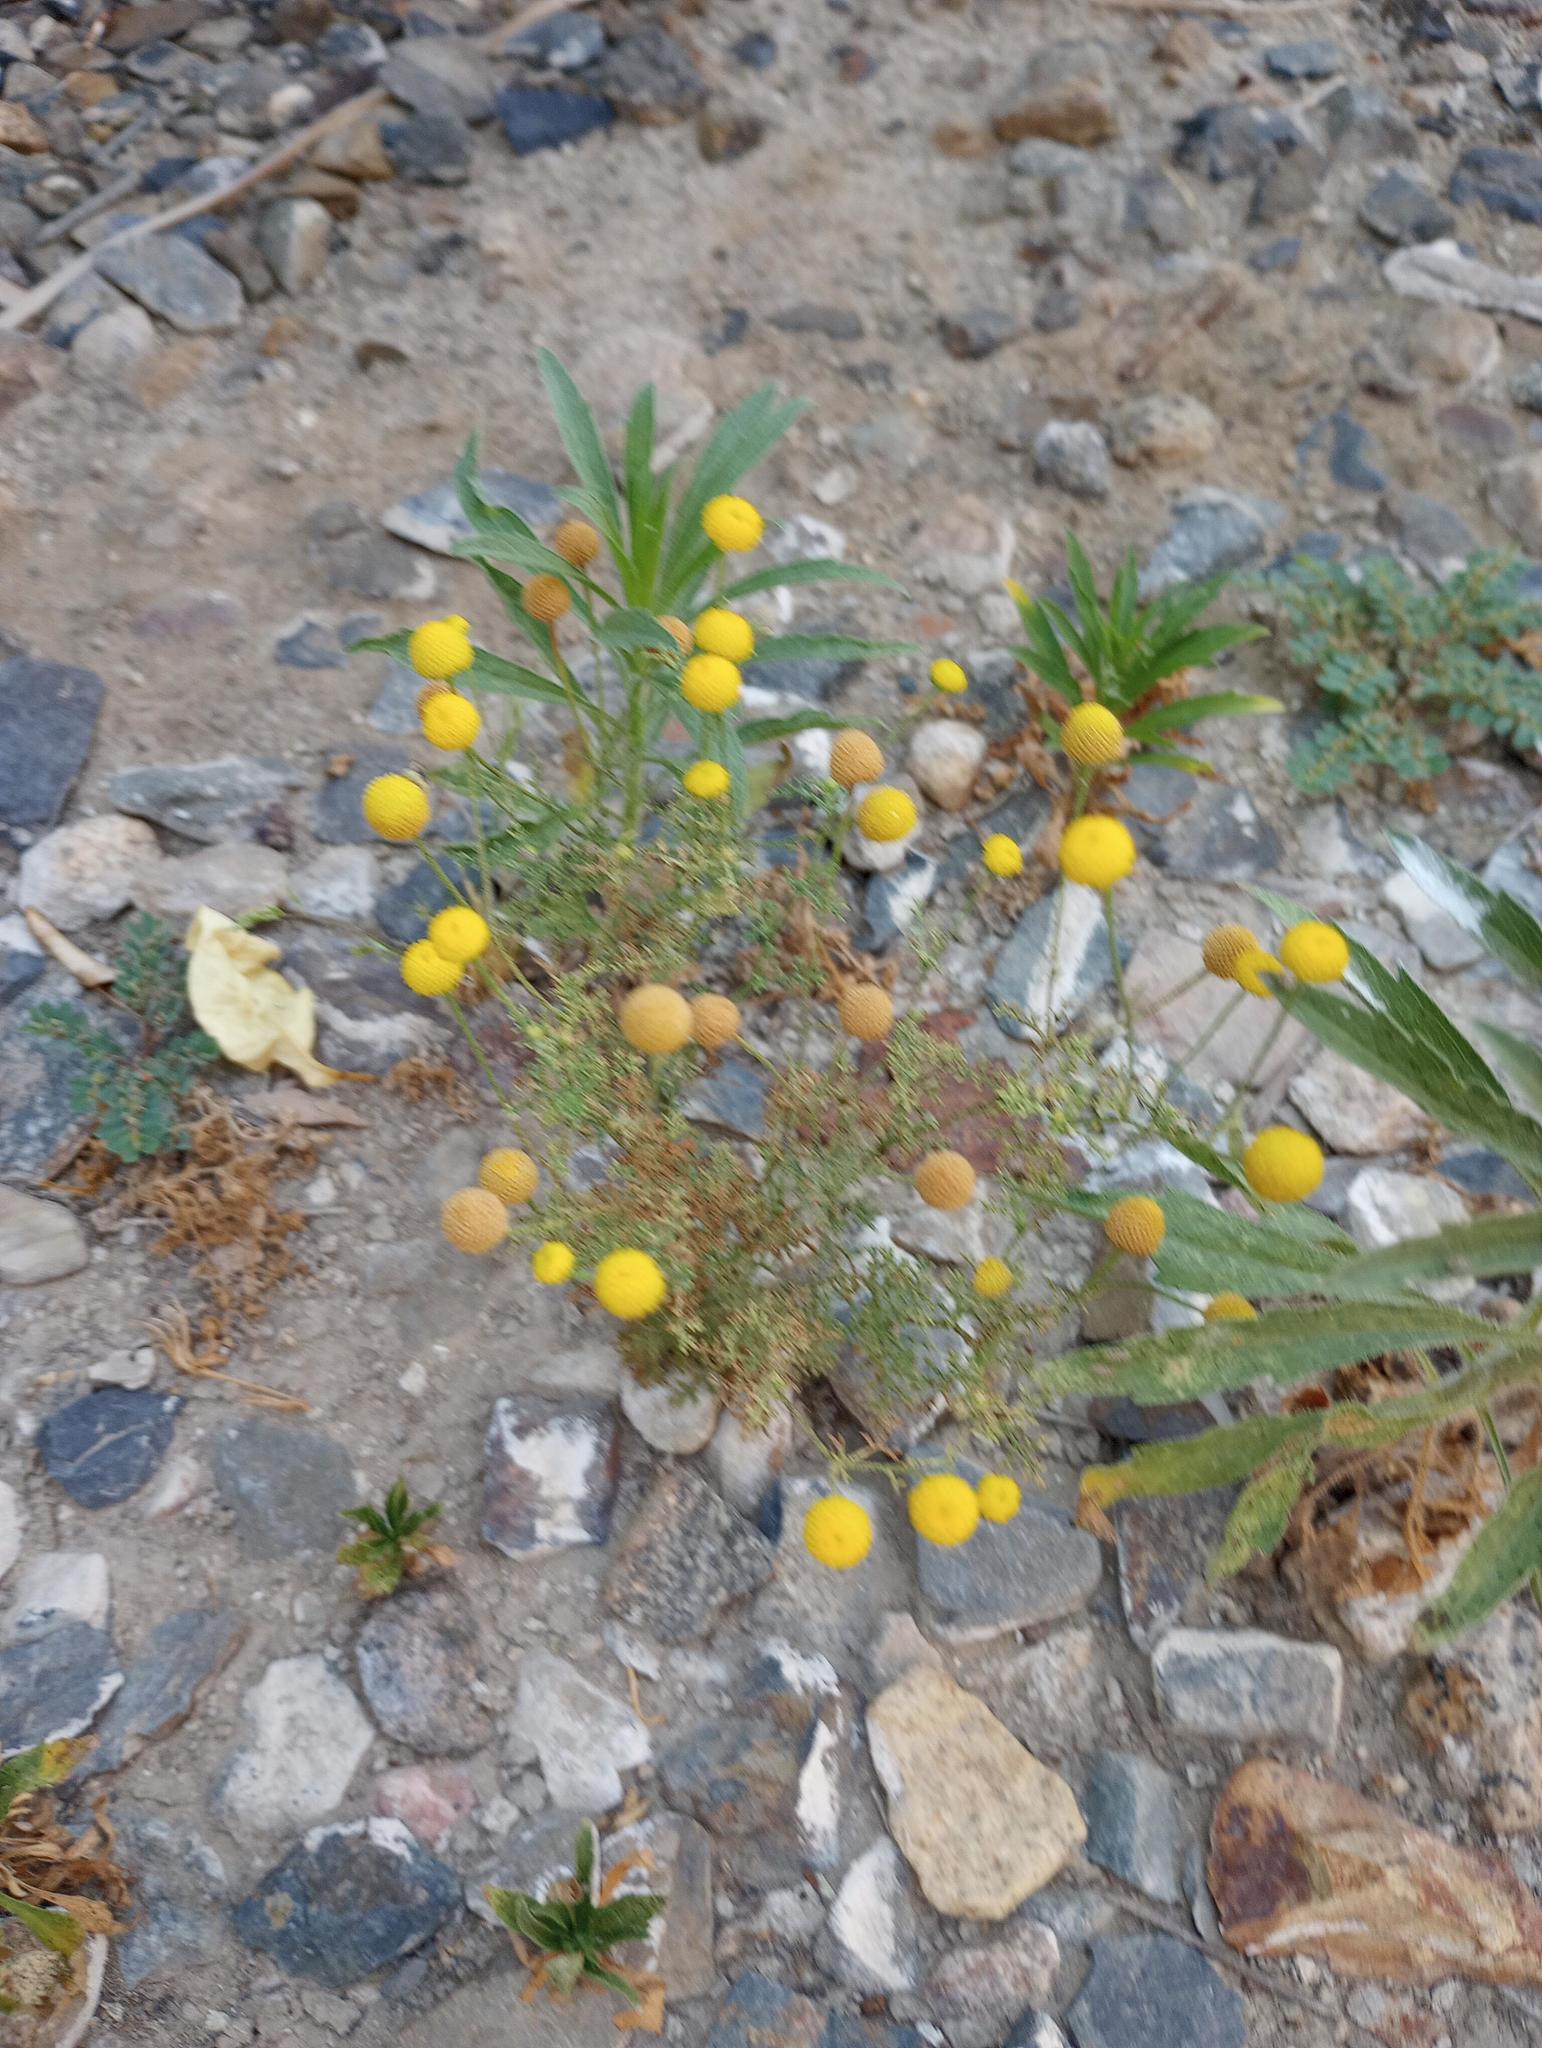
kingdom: Plantae
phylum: Tracheophyta
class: Magnoliopsida
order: Asterales
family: Asteraceae
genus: Oncosiphon
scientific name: Oncosiphon pilulifer
